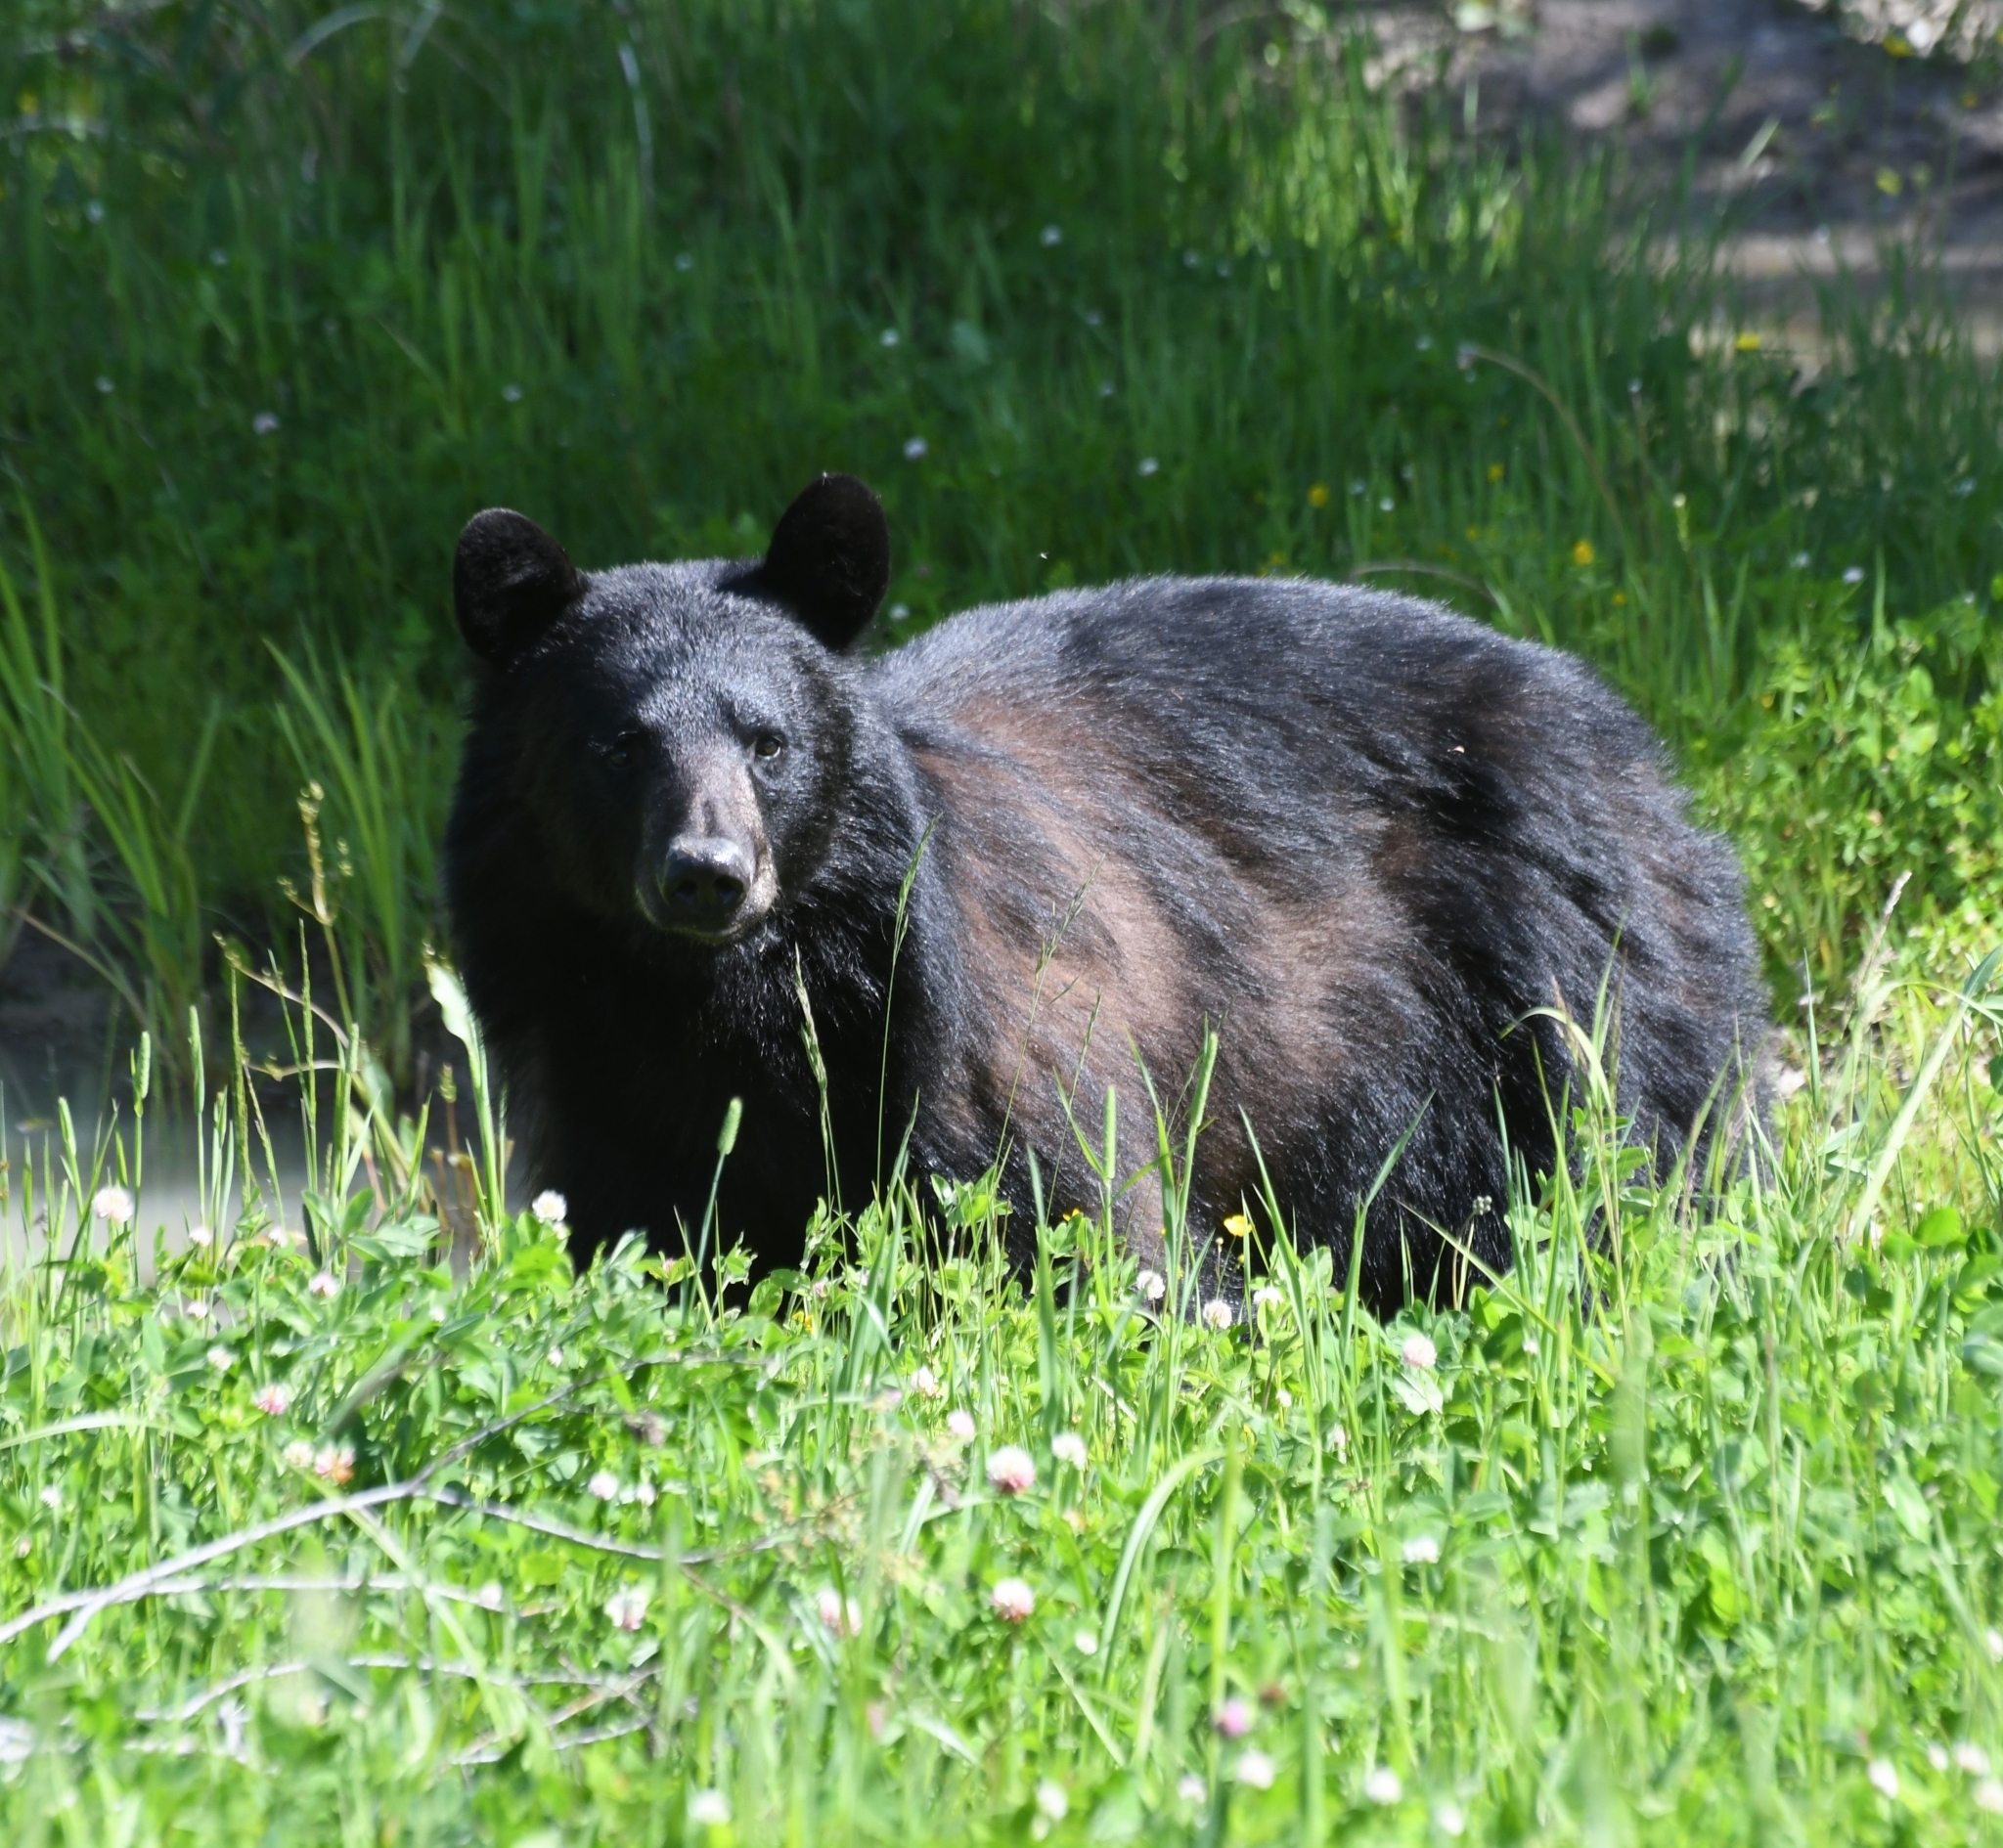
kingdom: Animalia
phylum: Chordata
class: Mammalia
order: Carnivora
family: Ursidae
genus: Ursus
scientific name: Ursus americanus
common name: American black bear
